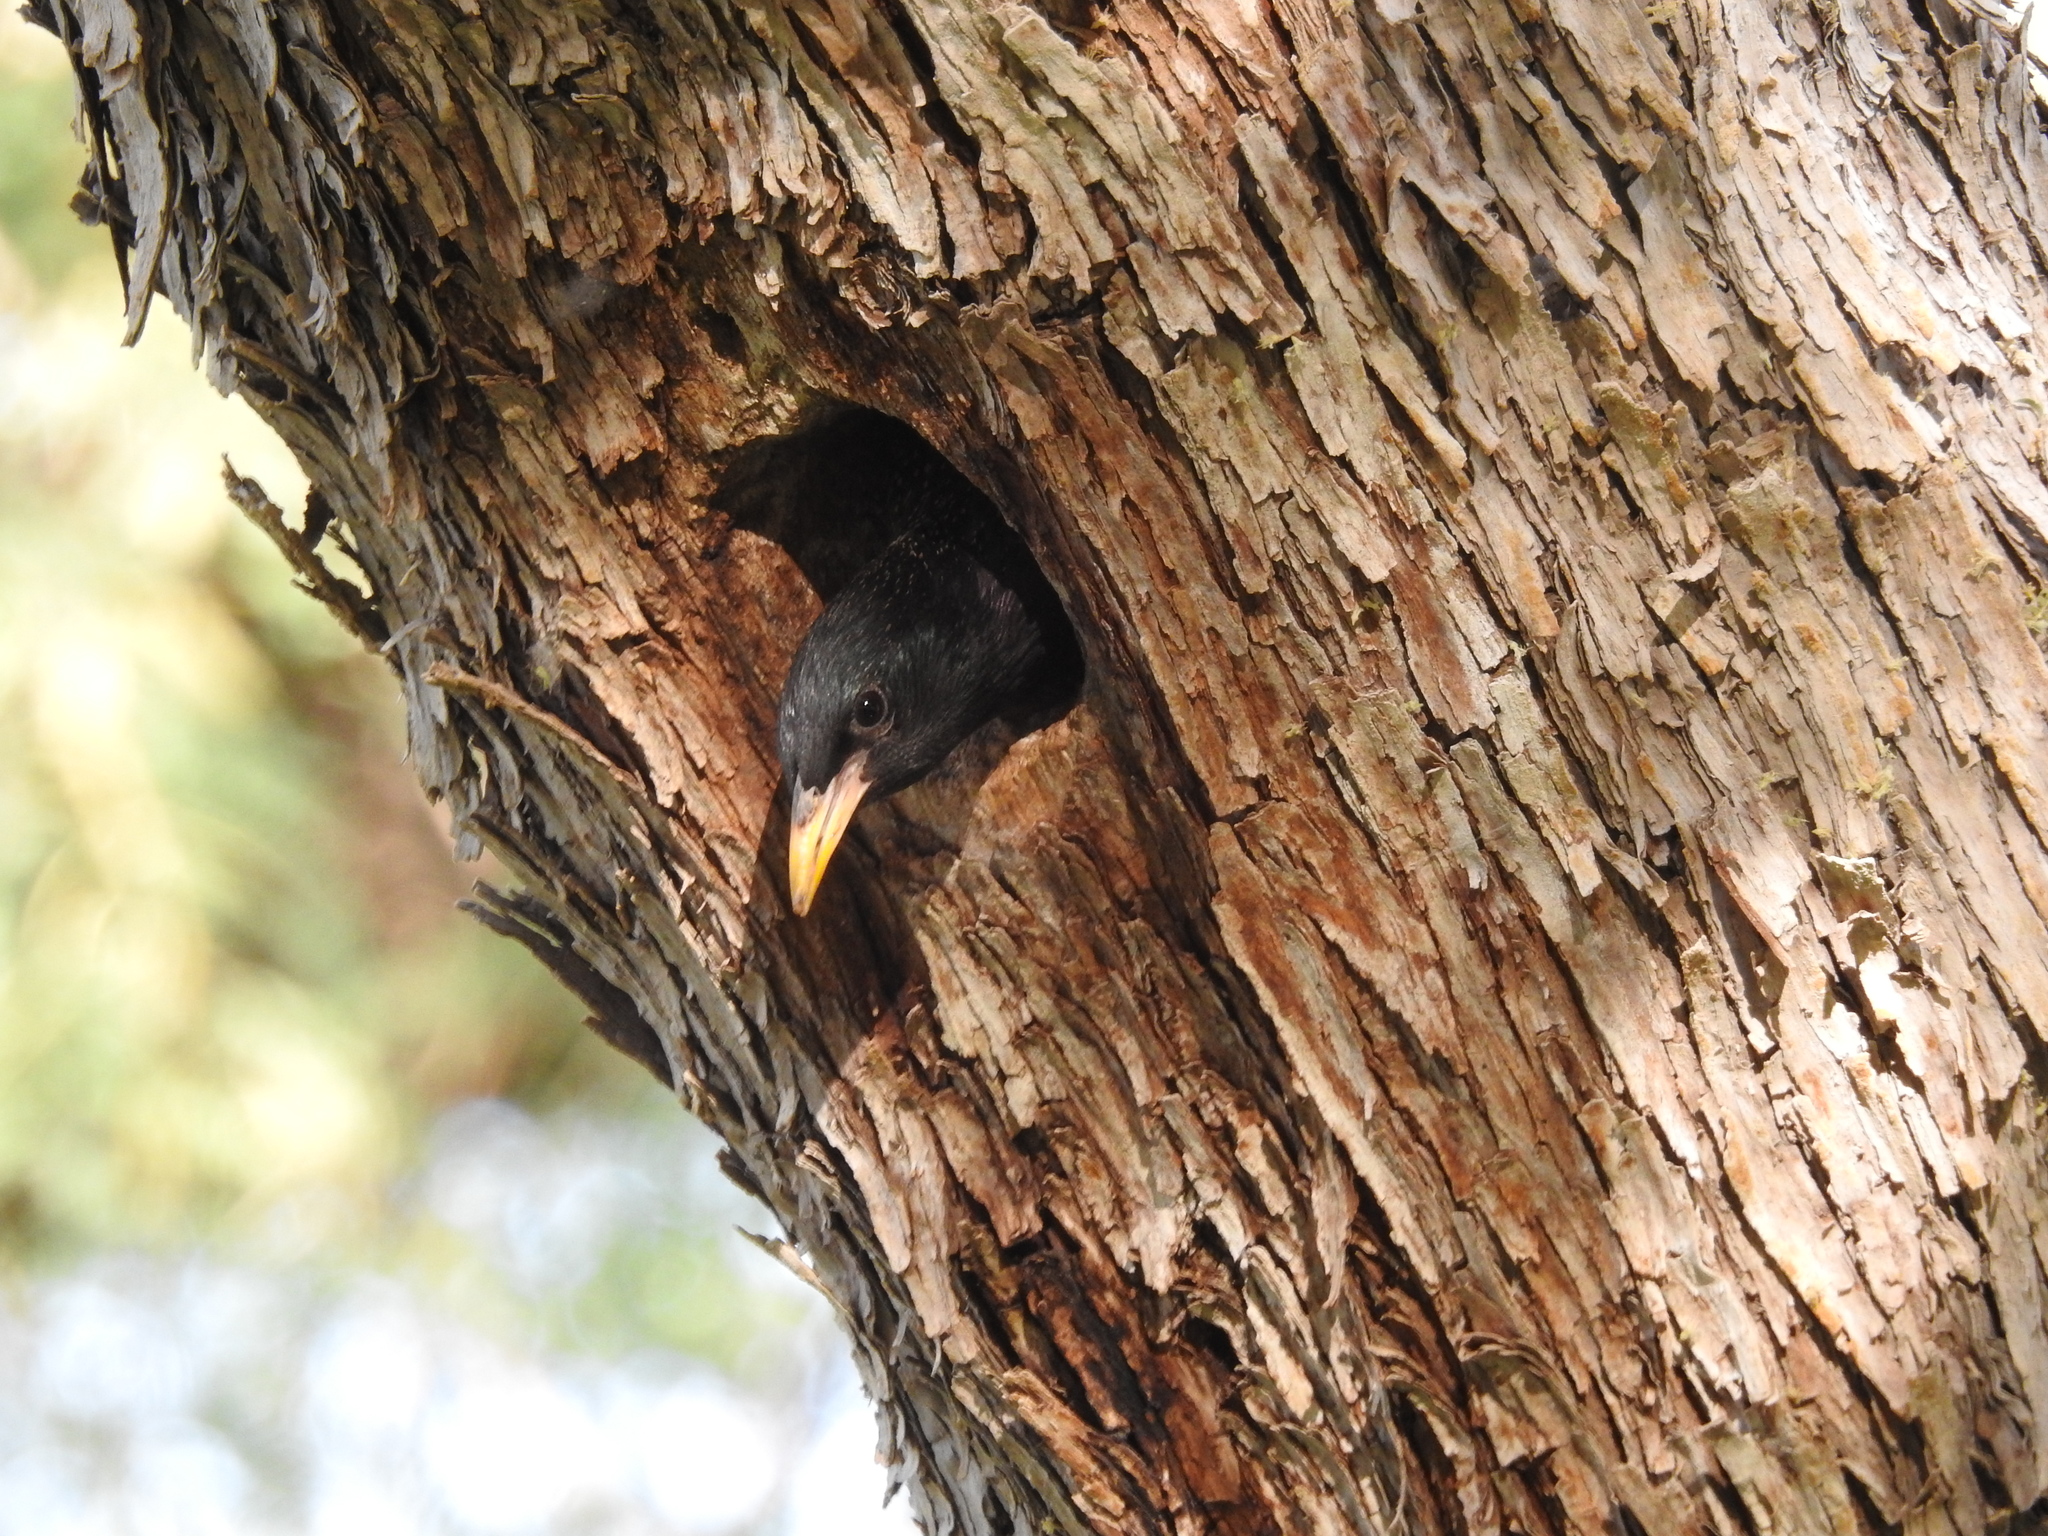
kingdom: Animalia
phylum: Chordata
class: Aves
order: Passeriformes
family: Sturnidae
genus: Sturnus
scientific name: Sturnus vulgaris
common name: Common starling
